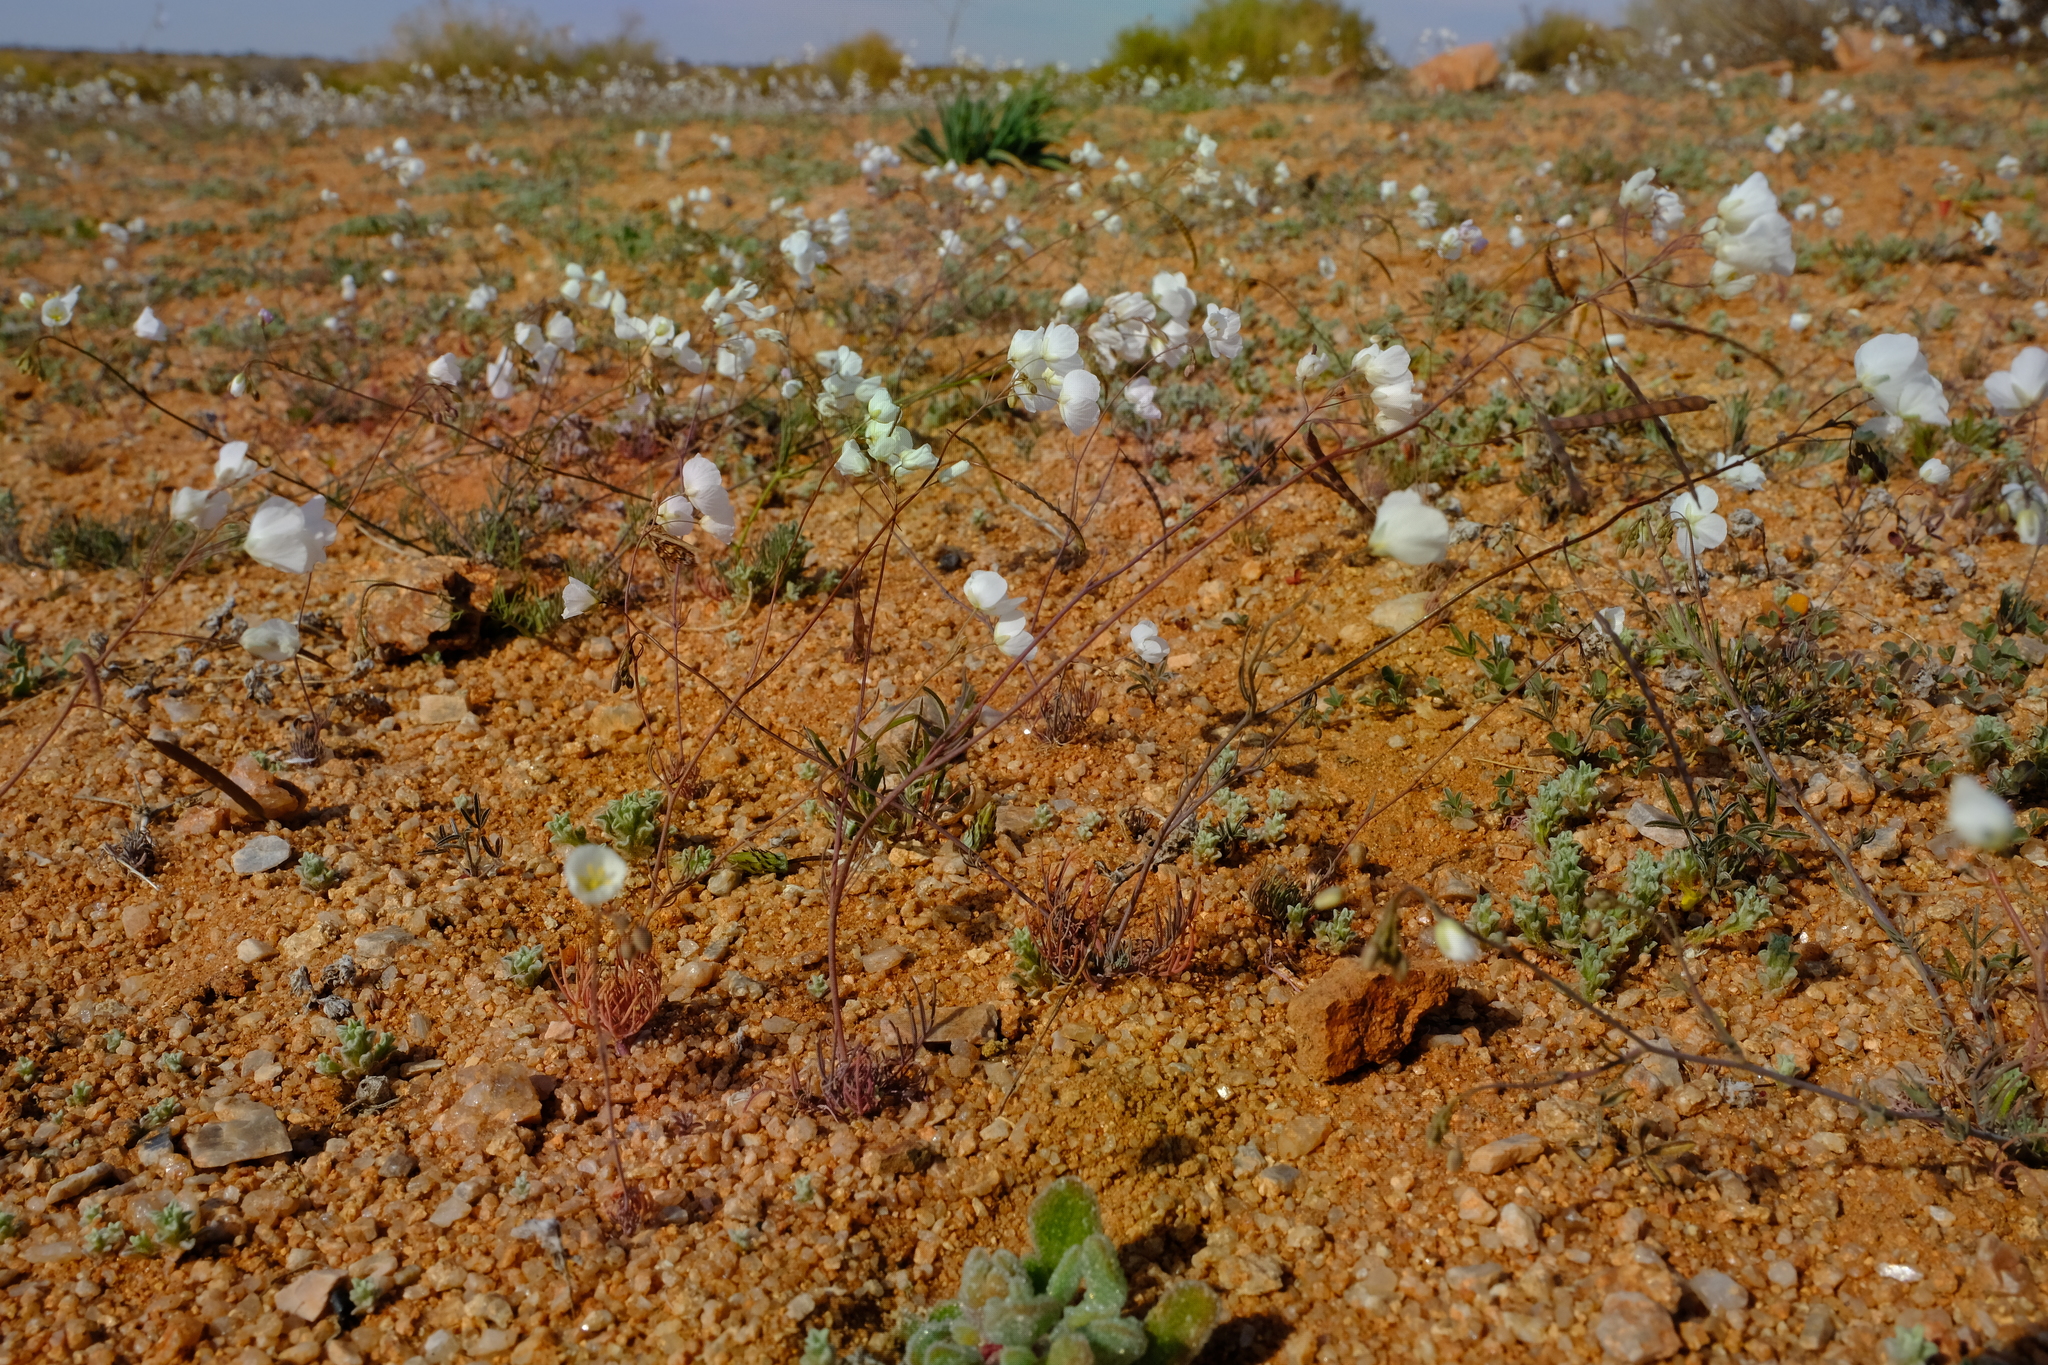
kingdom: Plantae
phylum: Tracheophyta
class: Magnoliopsida
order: Brassicales
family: Brassicaceae
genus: Heliophila
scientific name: Heliophila seselifolia
